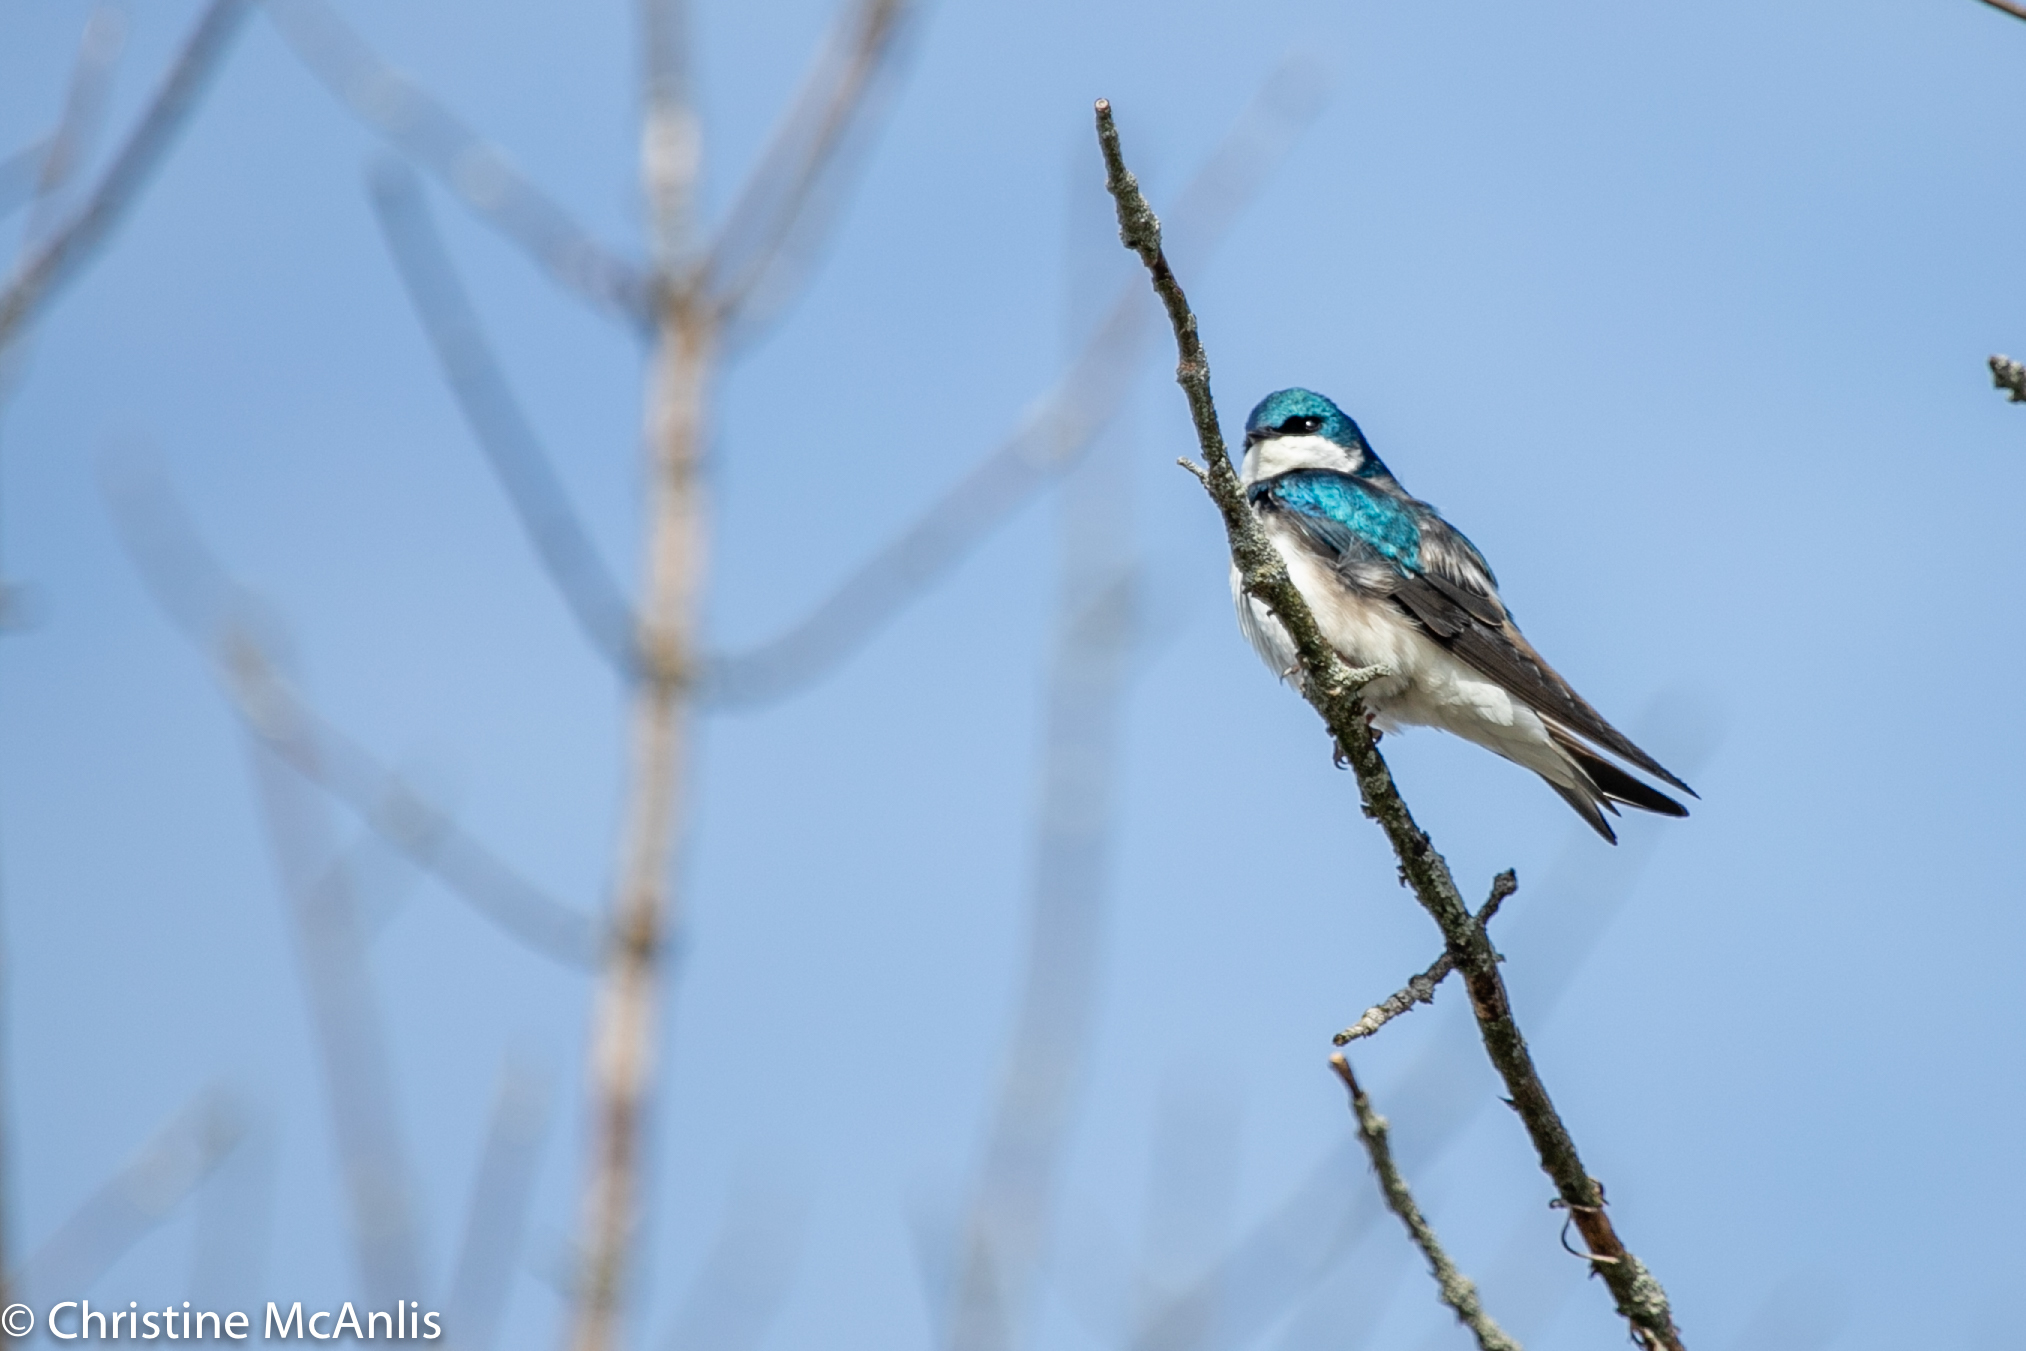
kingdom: Animalia
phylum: Chordata
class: Aves
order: Passeriformes
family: Hirundinidae
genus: Tachycineta
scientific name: Tachycineta bicolor
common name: Tree swallow
